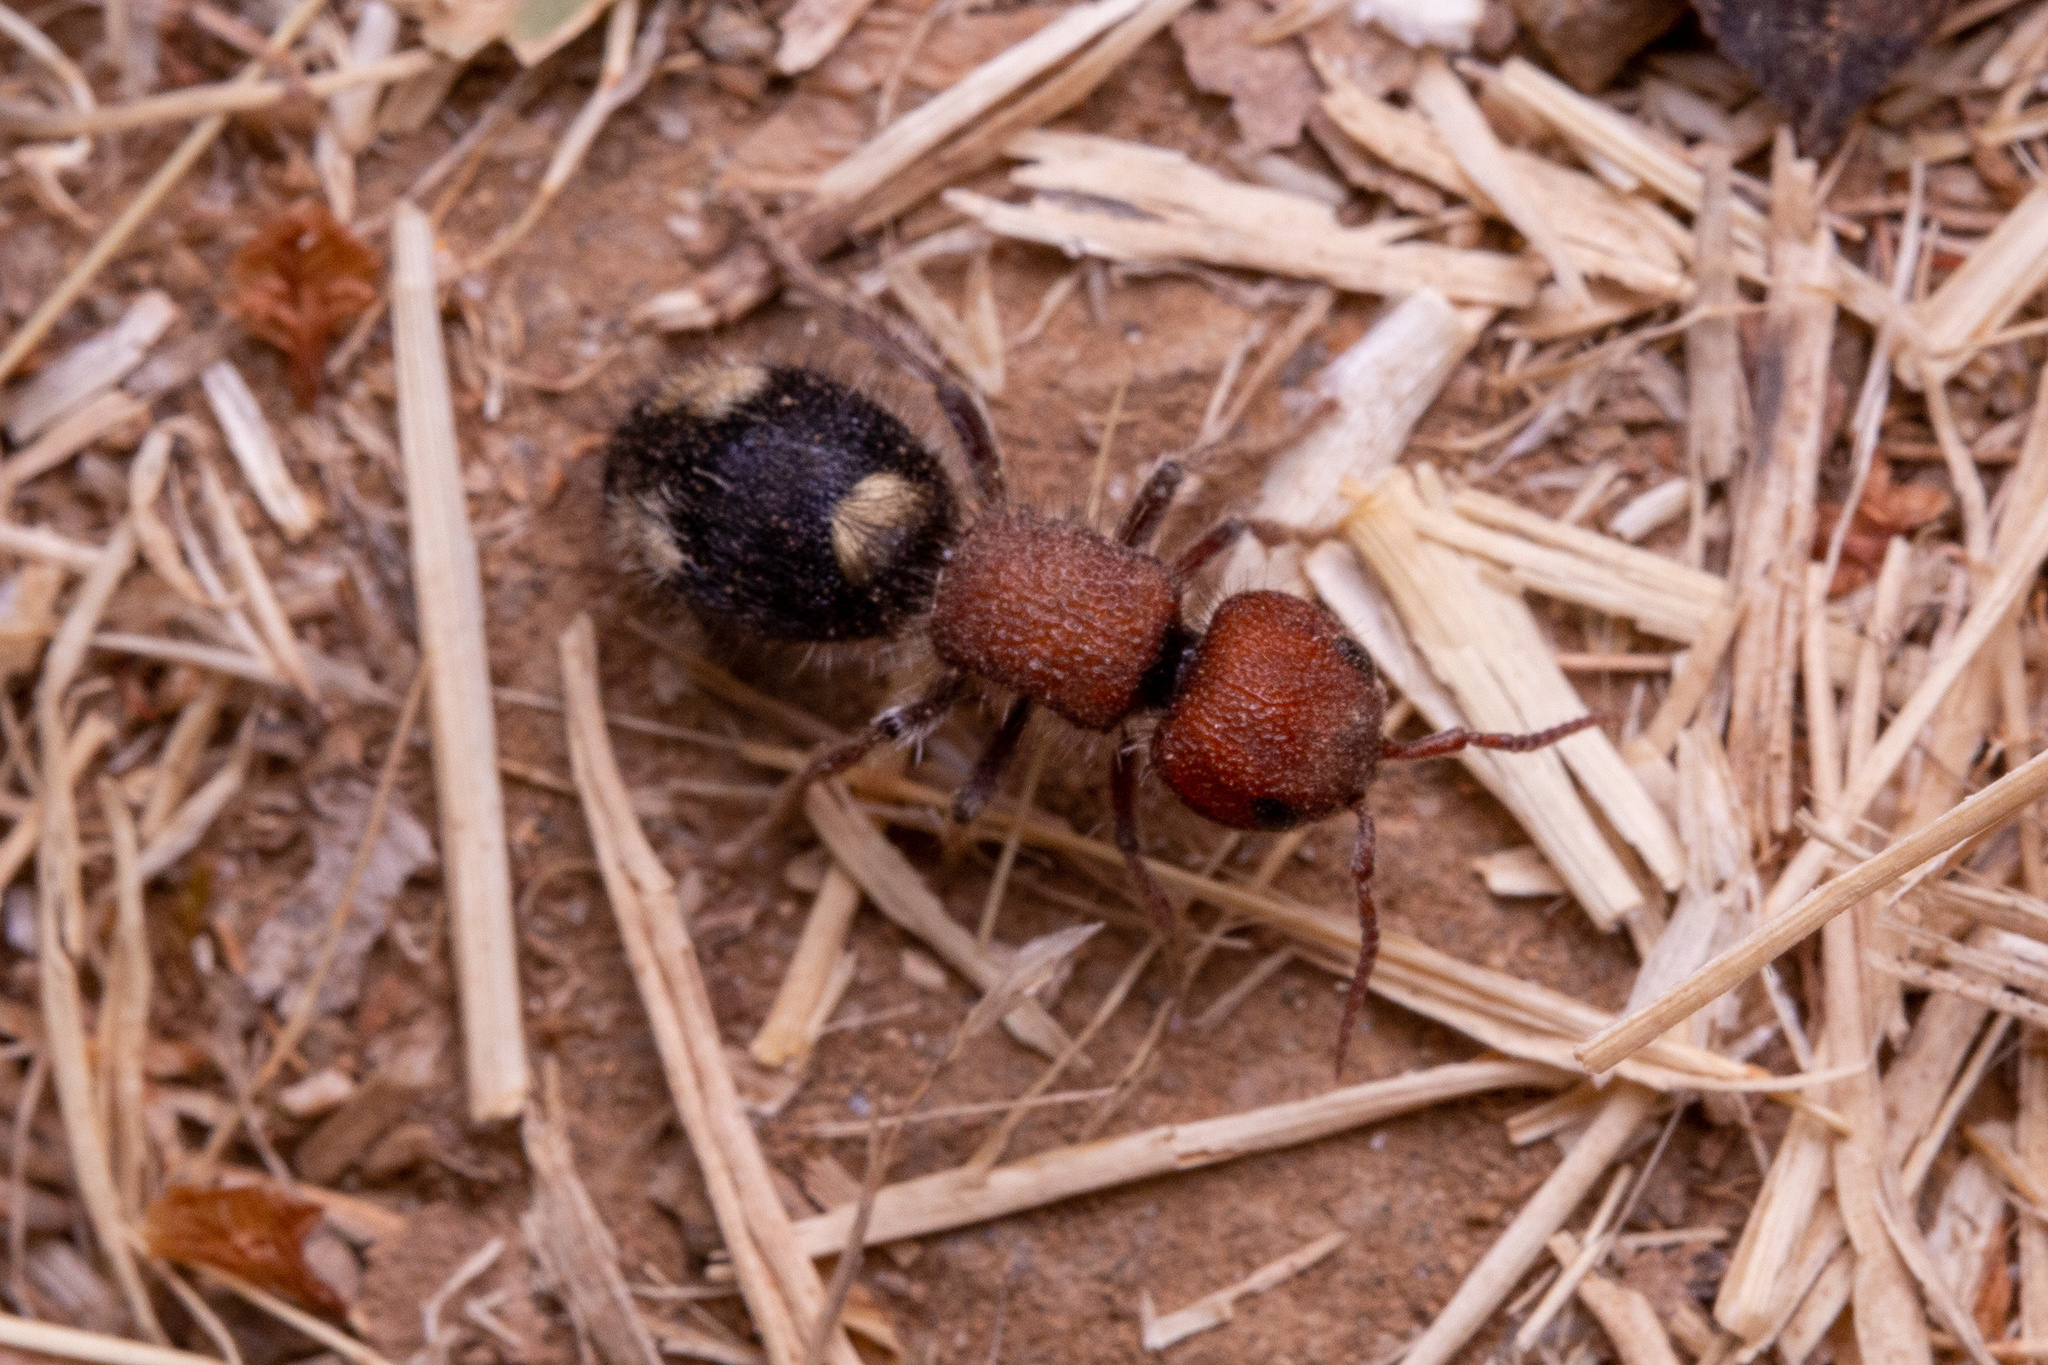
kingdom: Animalia
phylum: Arthropoda
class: Insecta
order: Hymenoptera
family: Mutillidae
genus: Mutilla
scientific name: Mutilla quinquemaculata
